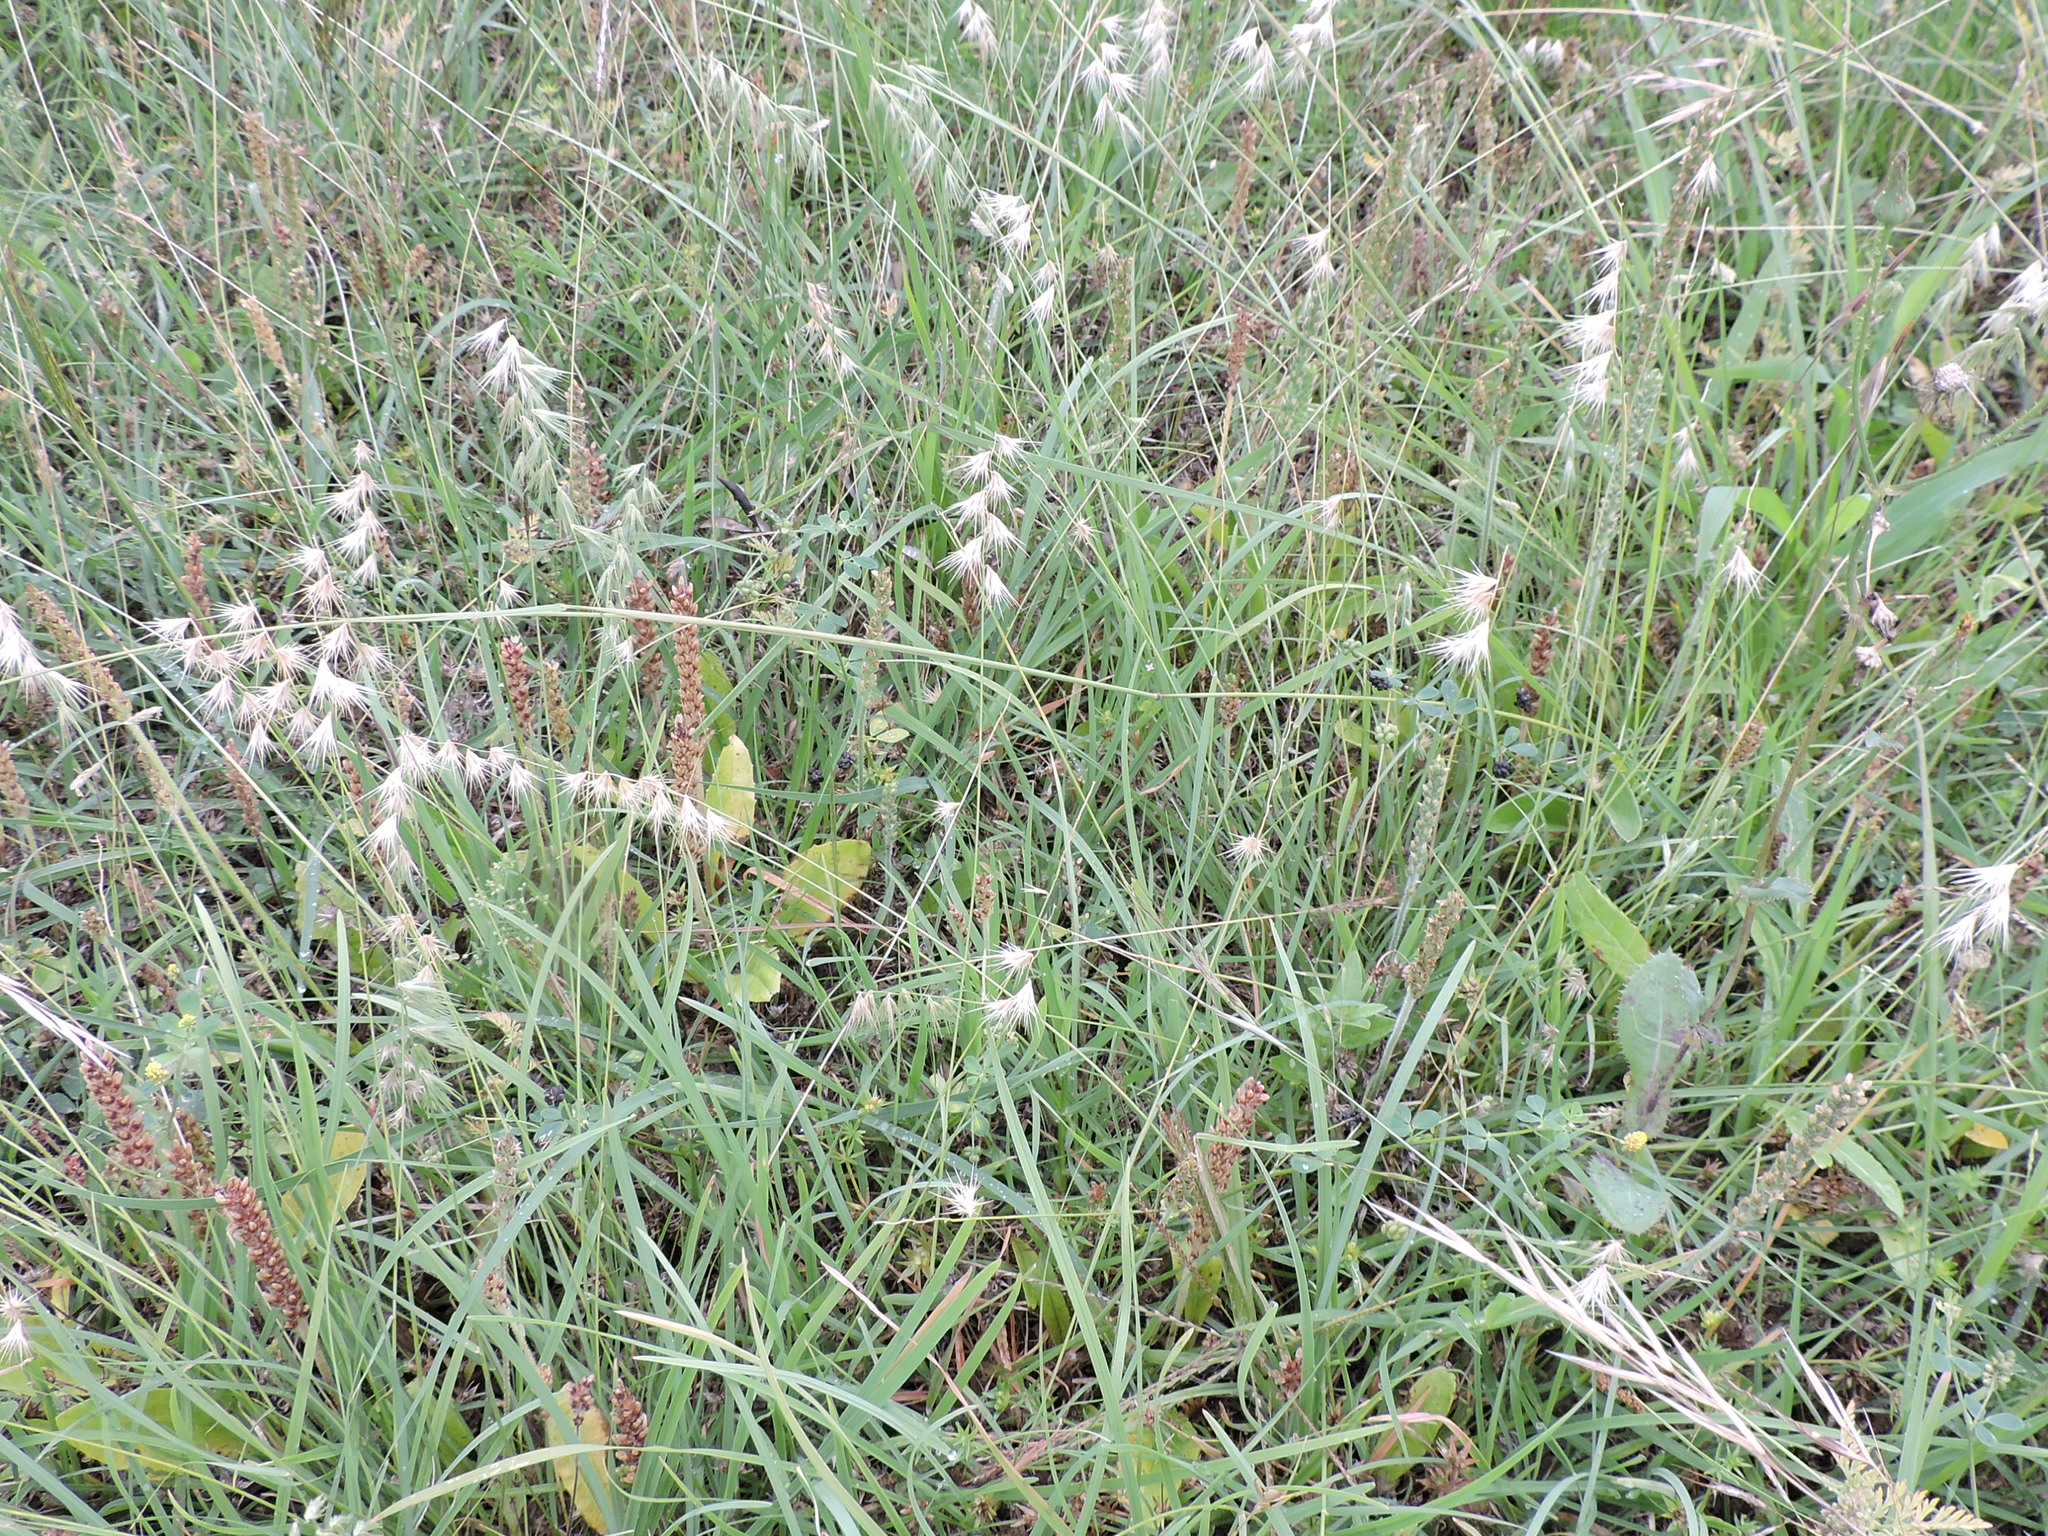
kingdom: Plantae
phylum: Tracheophyta
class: Liliopsida
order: Poales
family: Poaceae
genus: Bouteloua
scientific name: Bouteloua rigidiseta
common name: Texas grama
